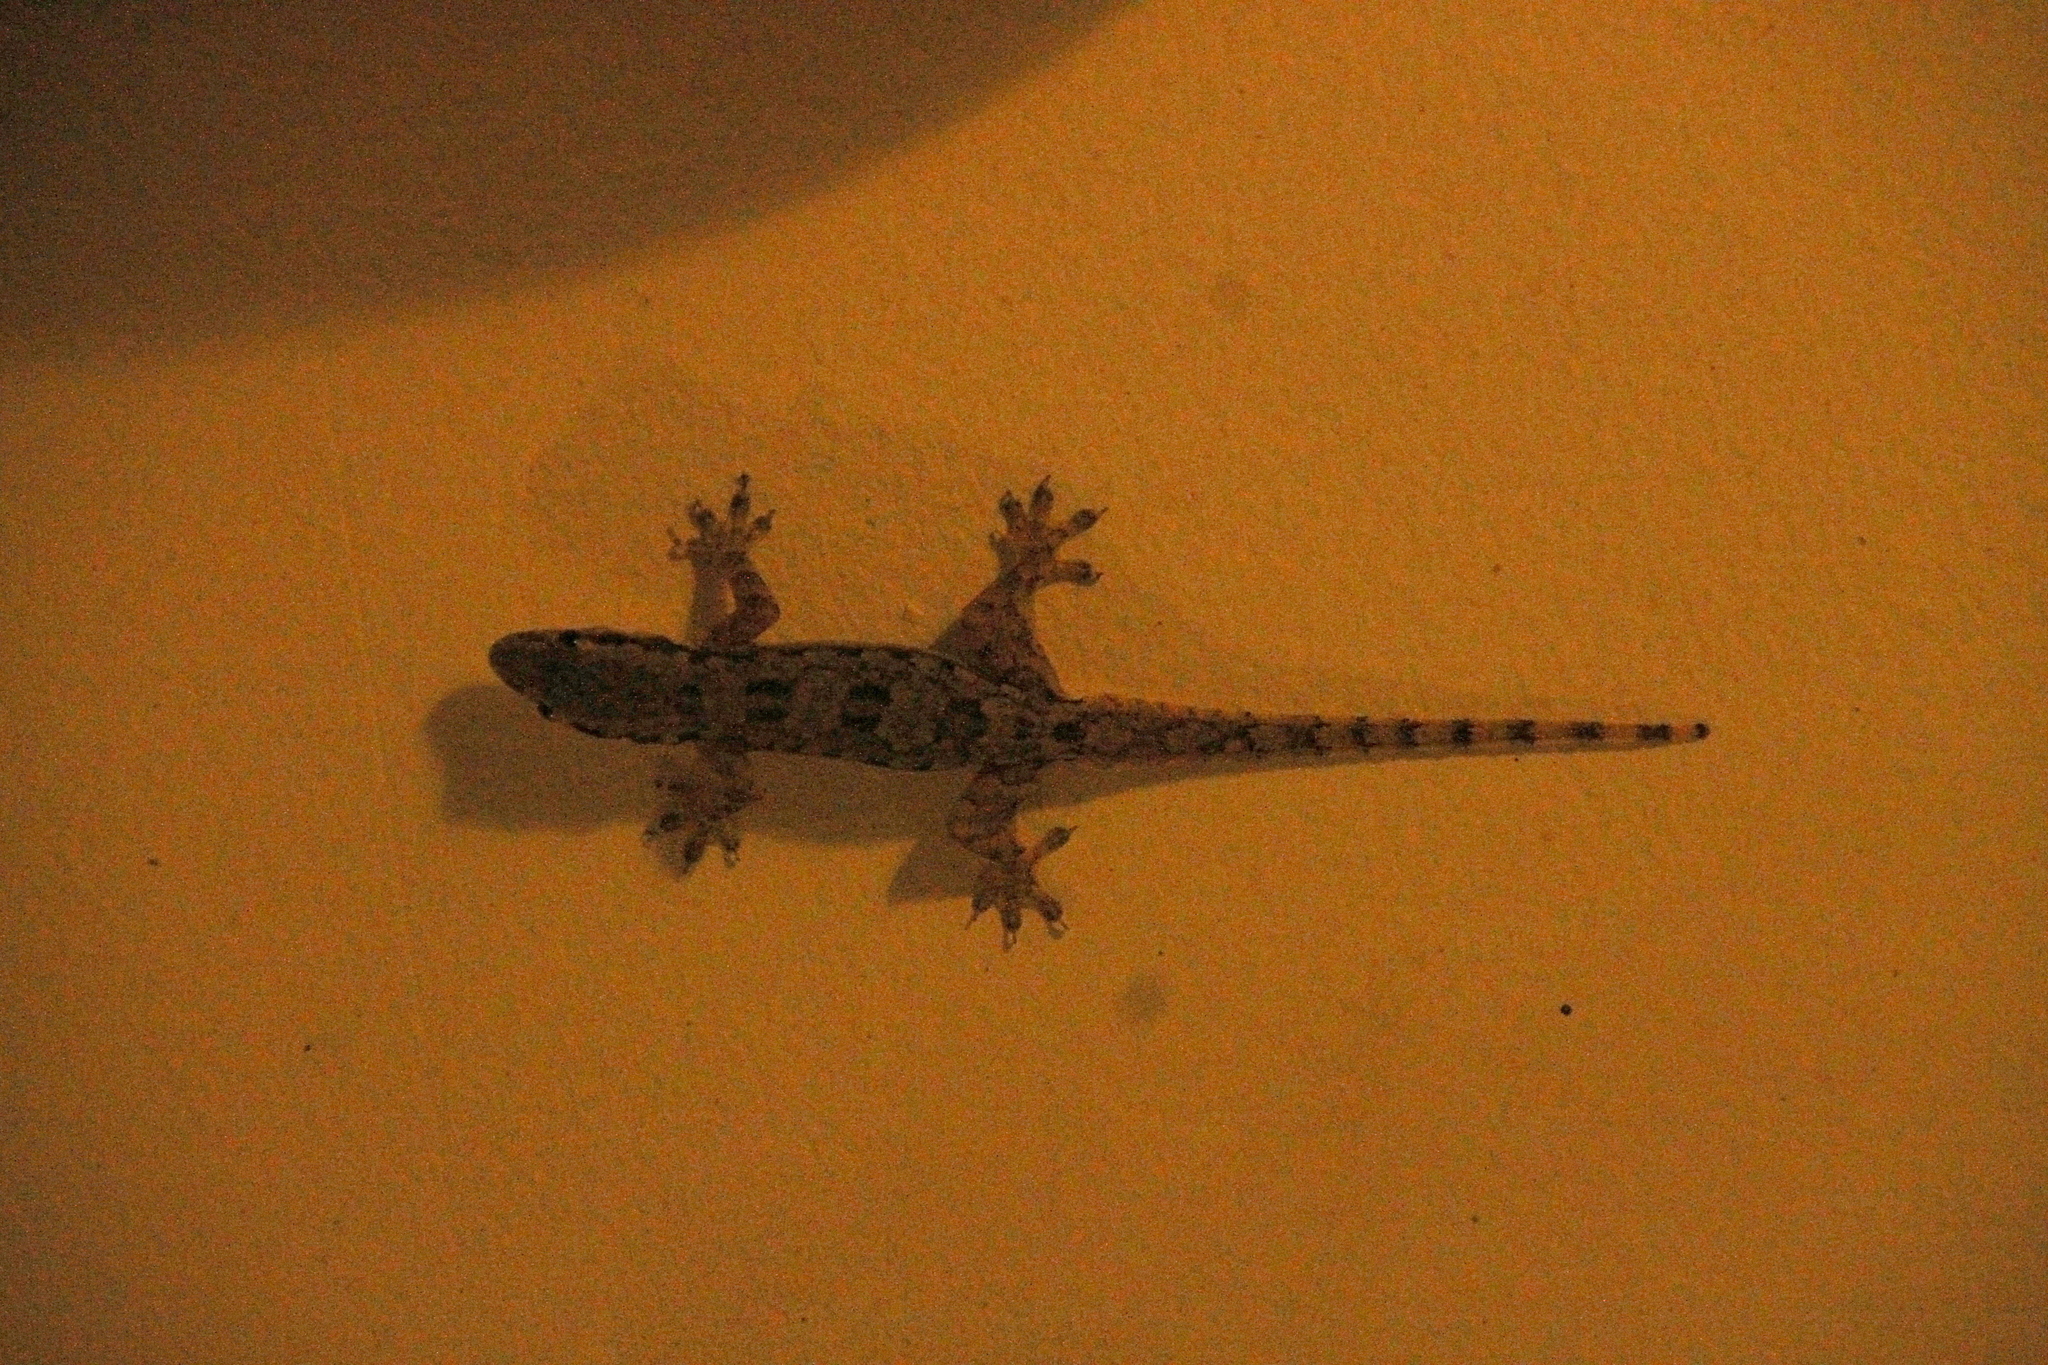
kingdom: Animalia
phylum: Chordata
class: Squamata
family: Gekkonidae
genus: Hemidactylus
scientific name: Hemidactylus platyurus
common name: Flat-tailed house gecko
